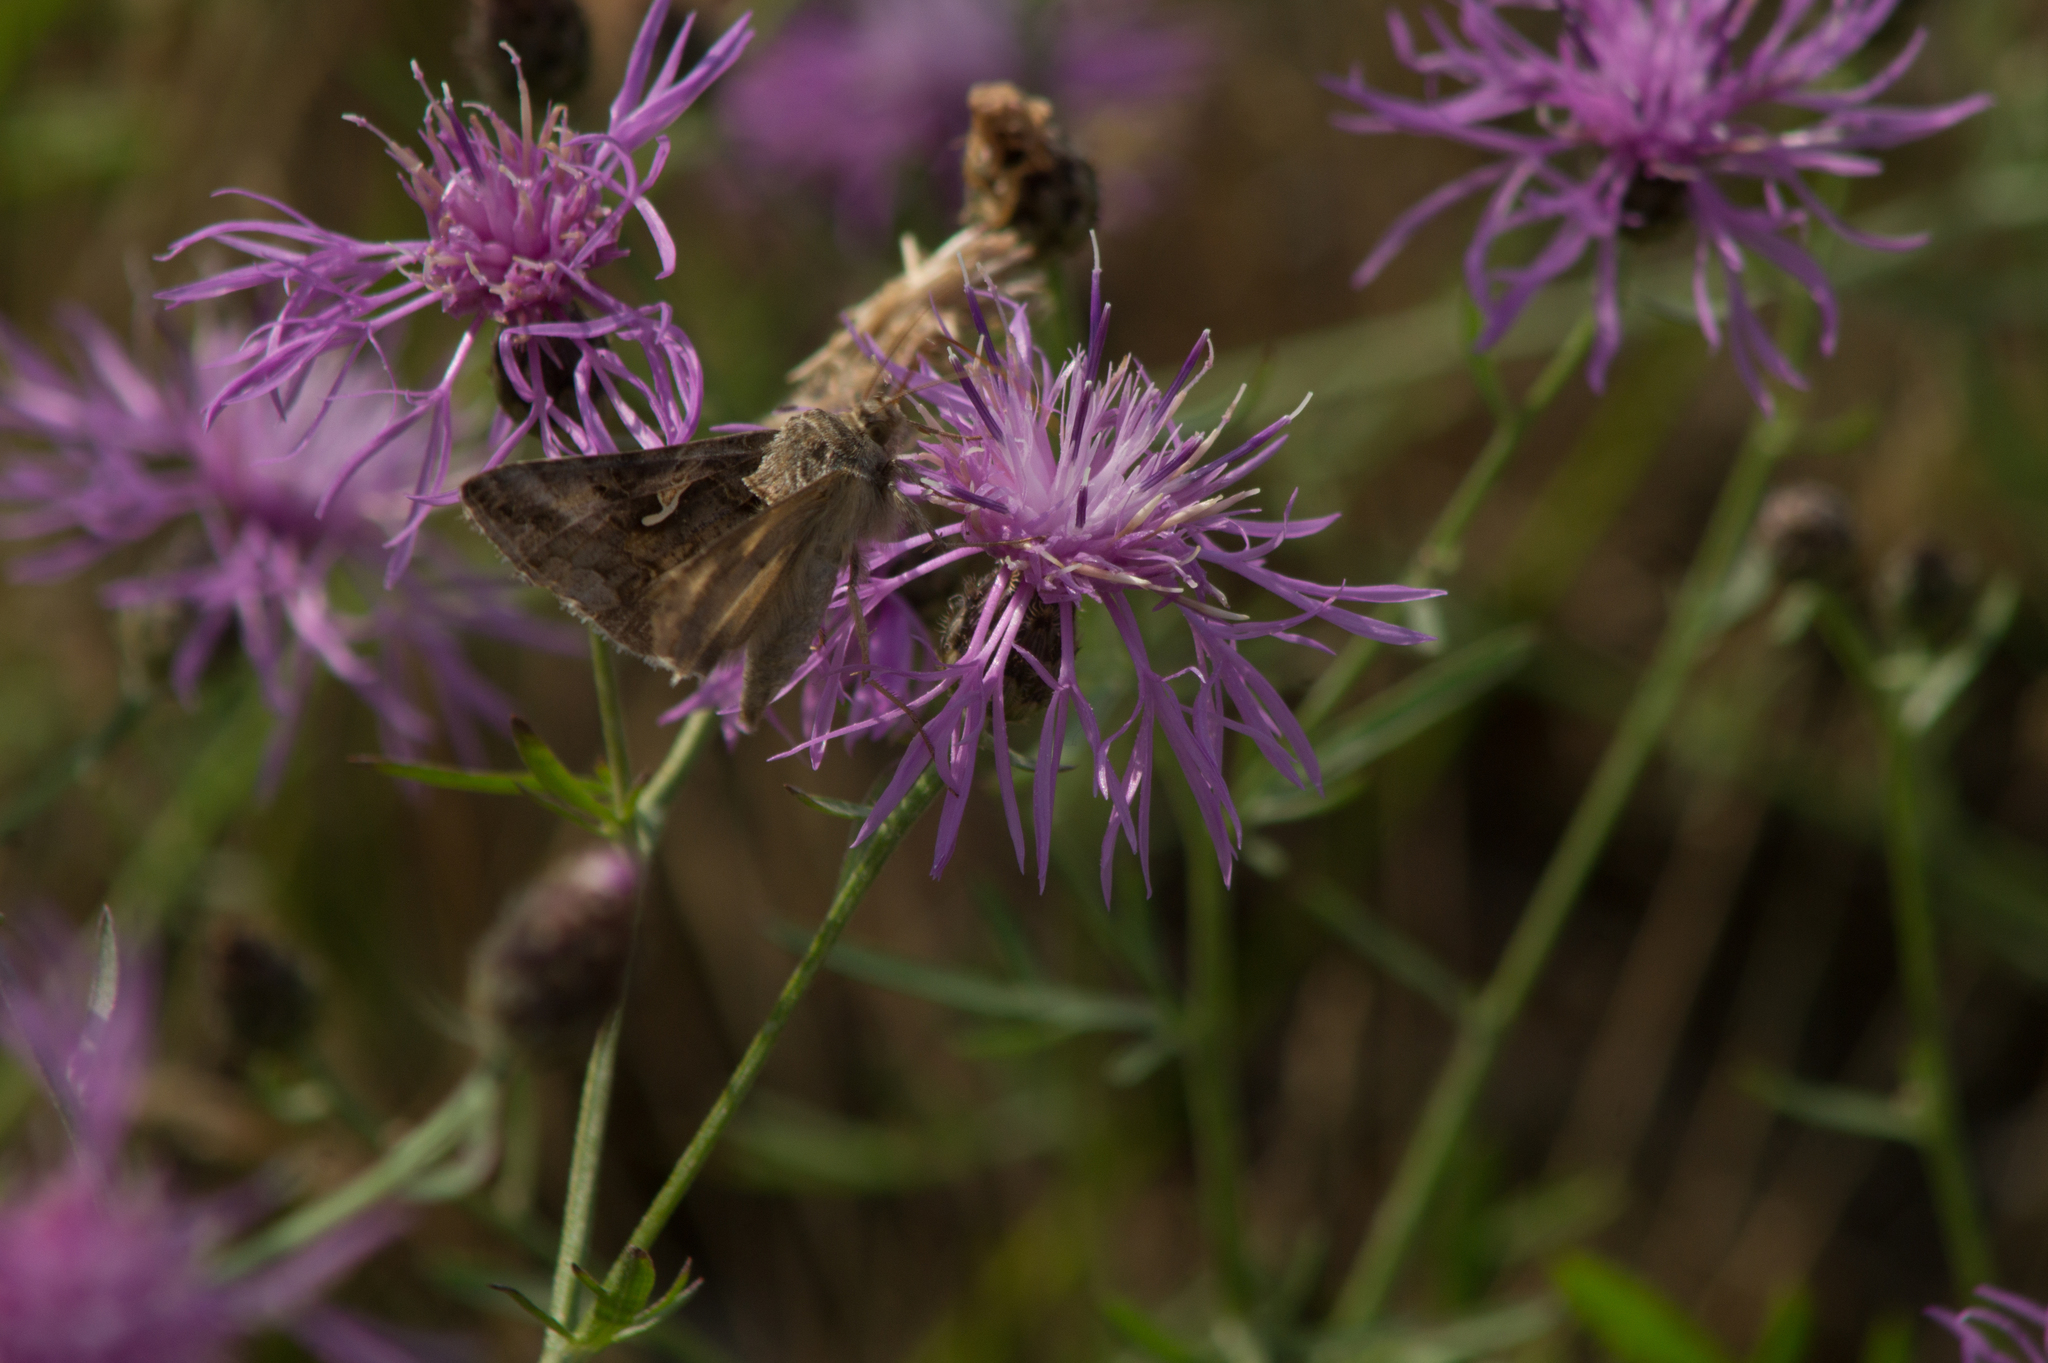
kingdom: Animalia
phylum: Arthropoda
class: Insecta
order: Lepidoptera
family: Noctuidae
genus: Autographa
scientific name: Autographa gamma
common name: Silver y
